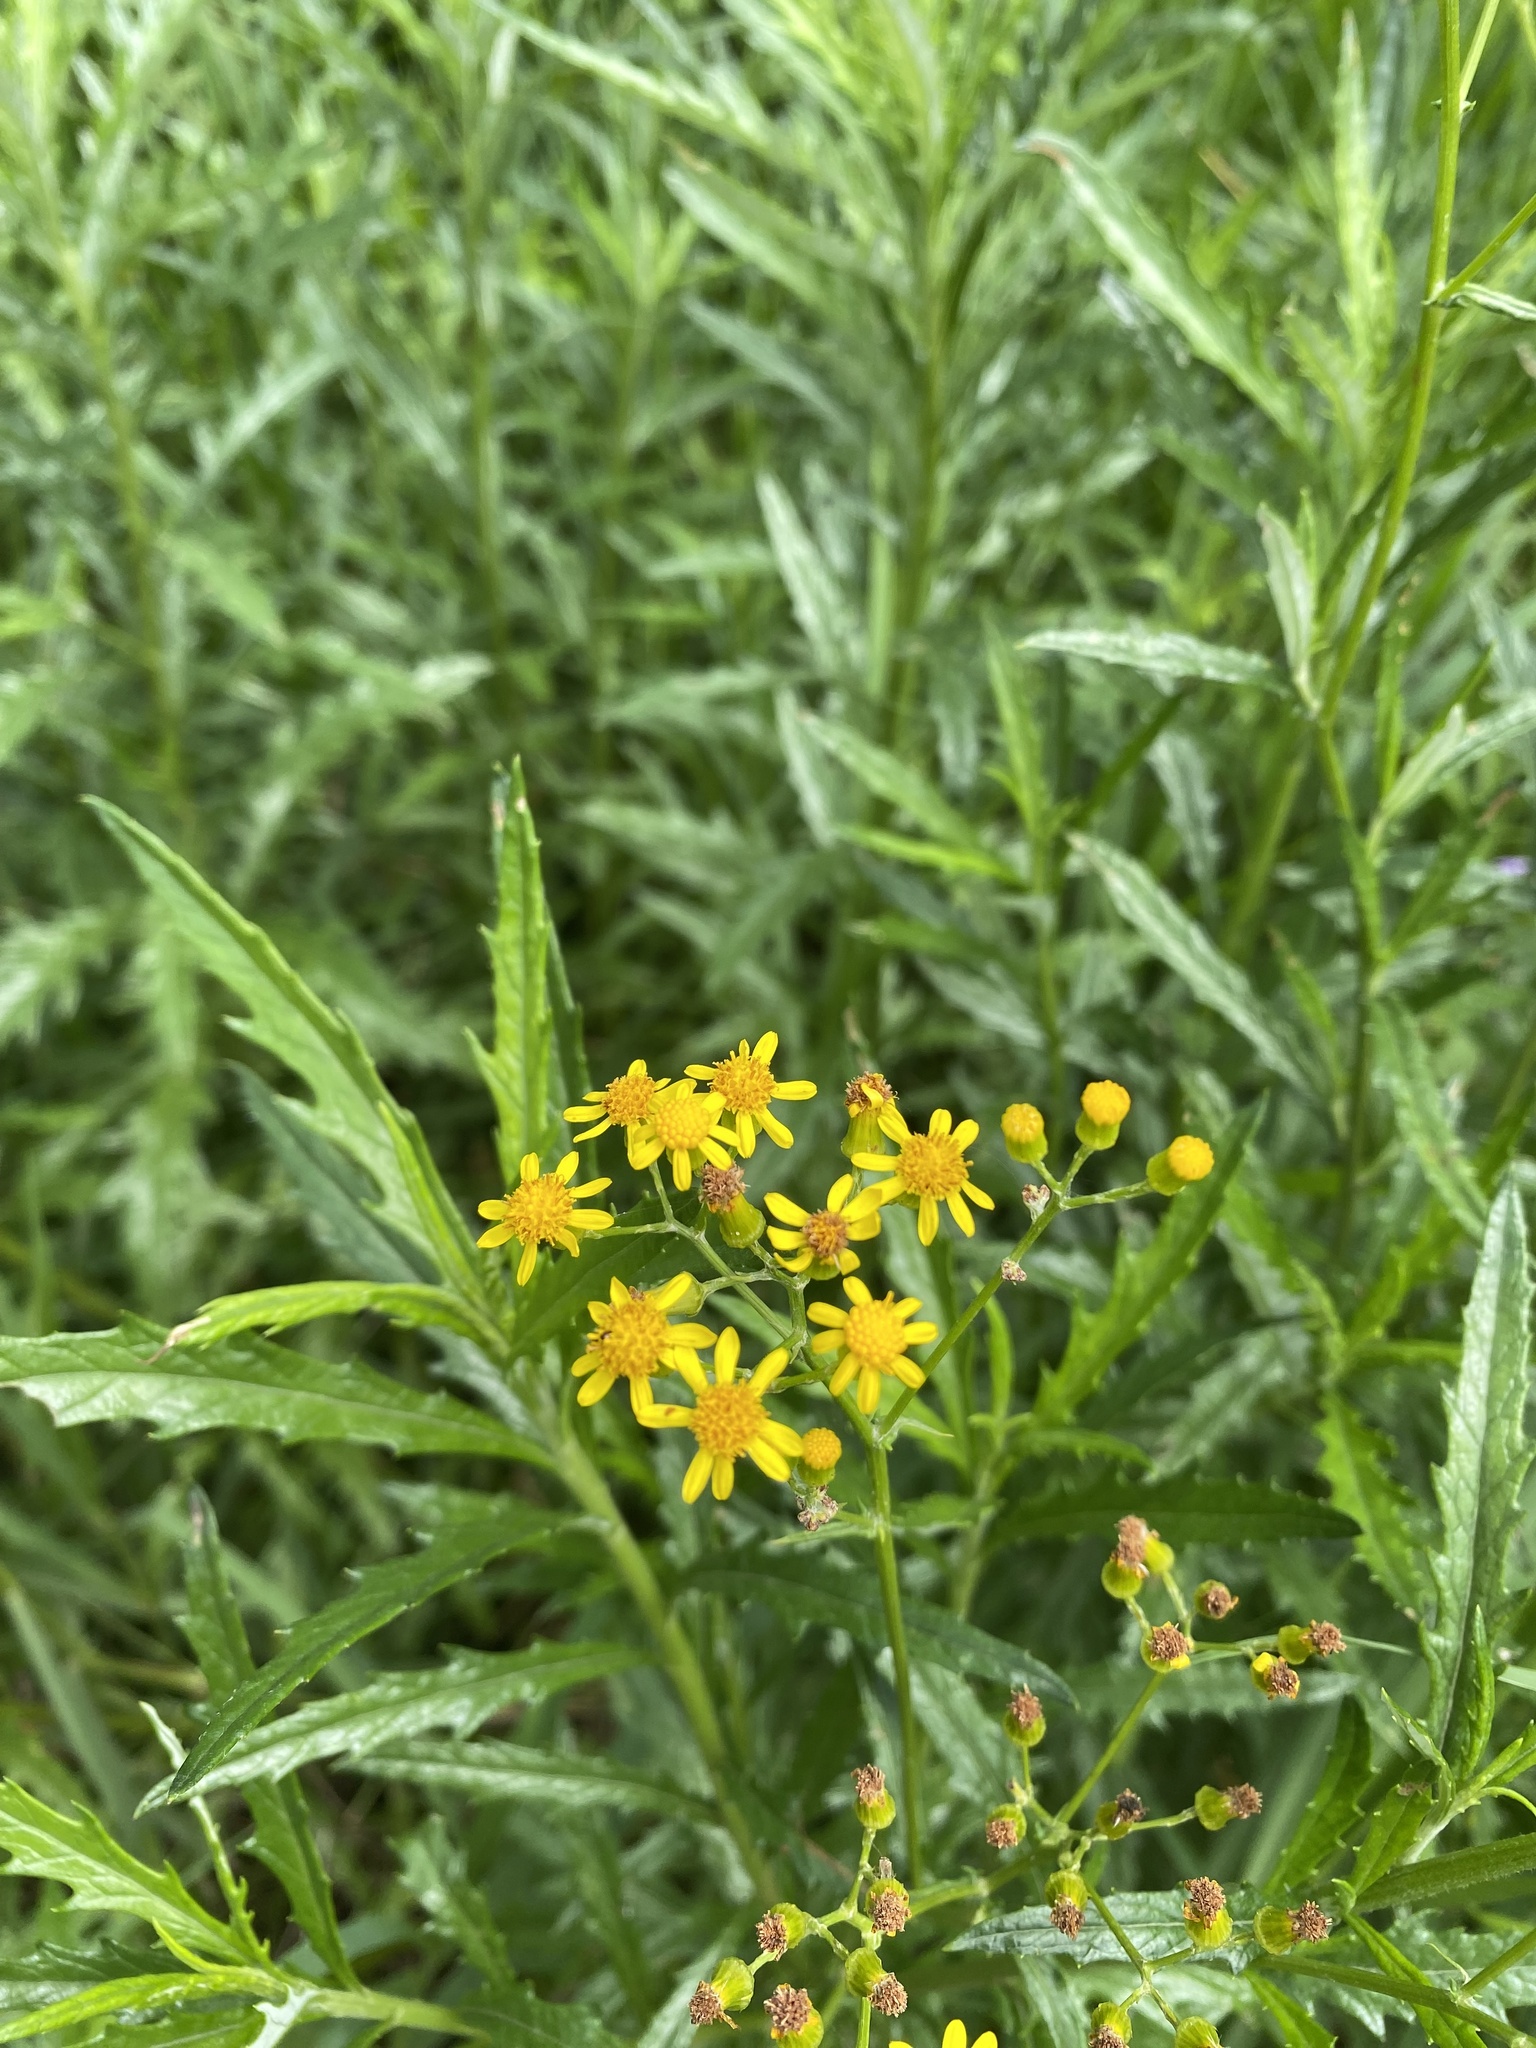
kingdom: Plantae
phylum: Tracheophyta
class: Magnoliopsida
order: Asterales
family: Asteraceae
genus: Senecio
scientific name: Senecio polyanthemoides
